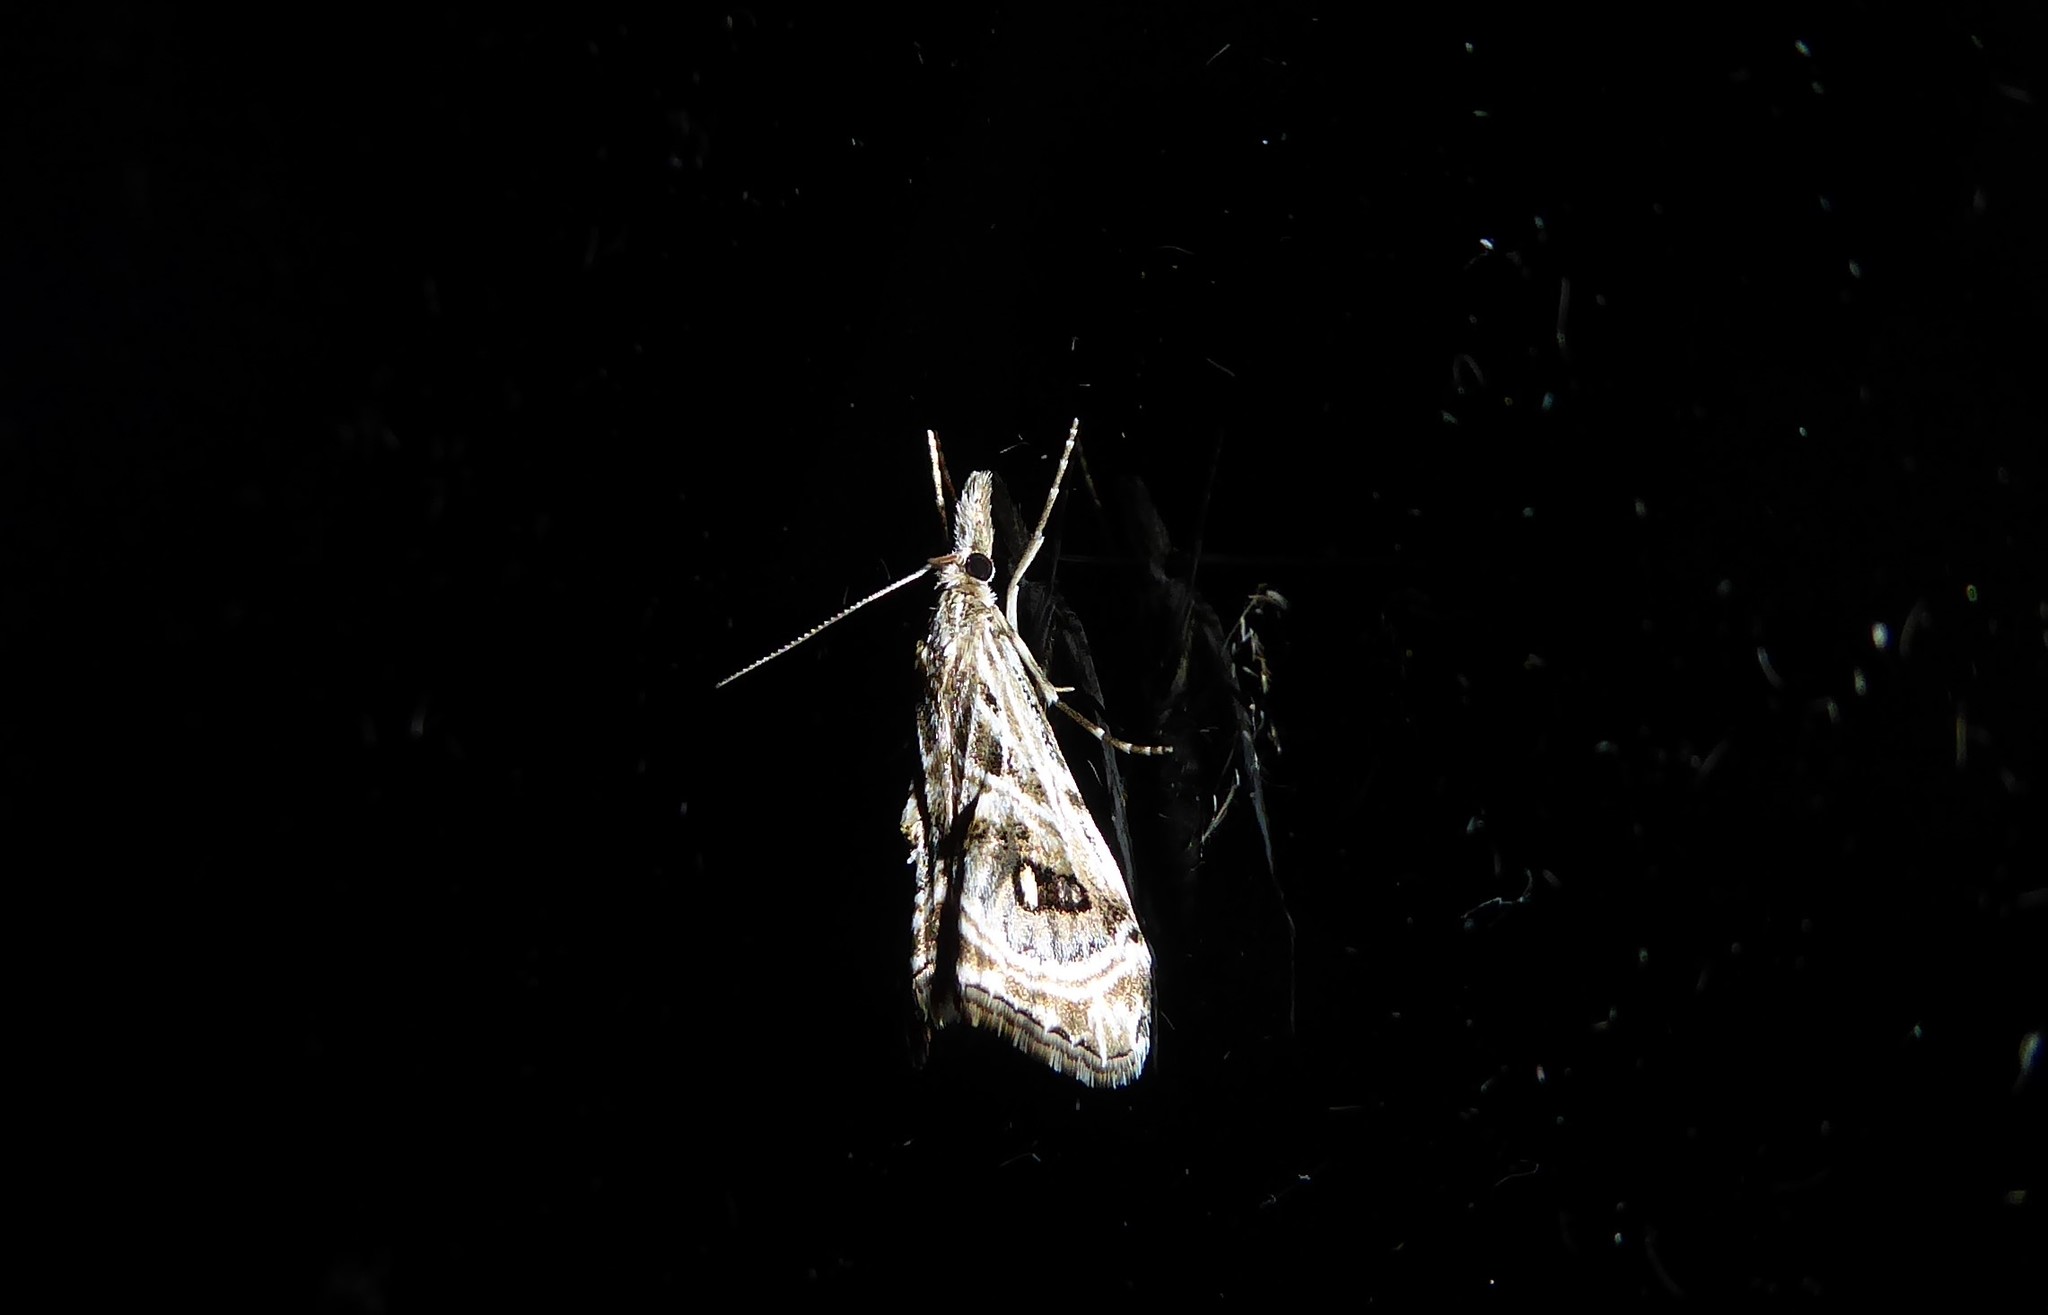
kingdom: Animalia
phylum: Arthropoda
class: Insecta
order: Lepidoptera
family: Crambidae
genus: Gadira
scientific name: Gadira acerella
